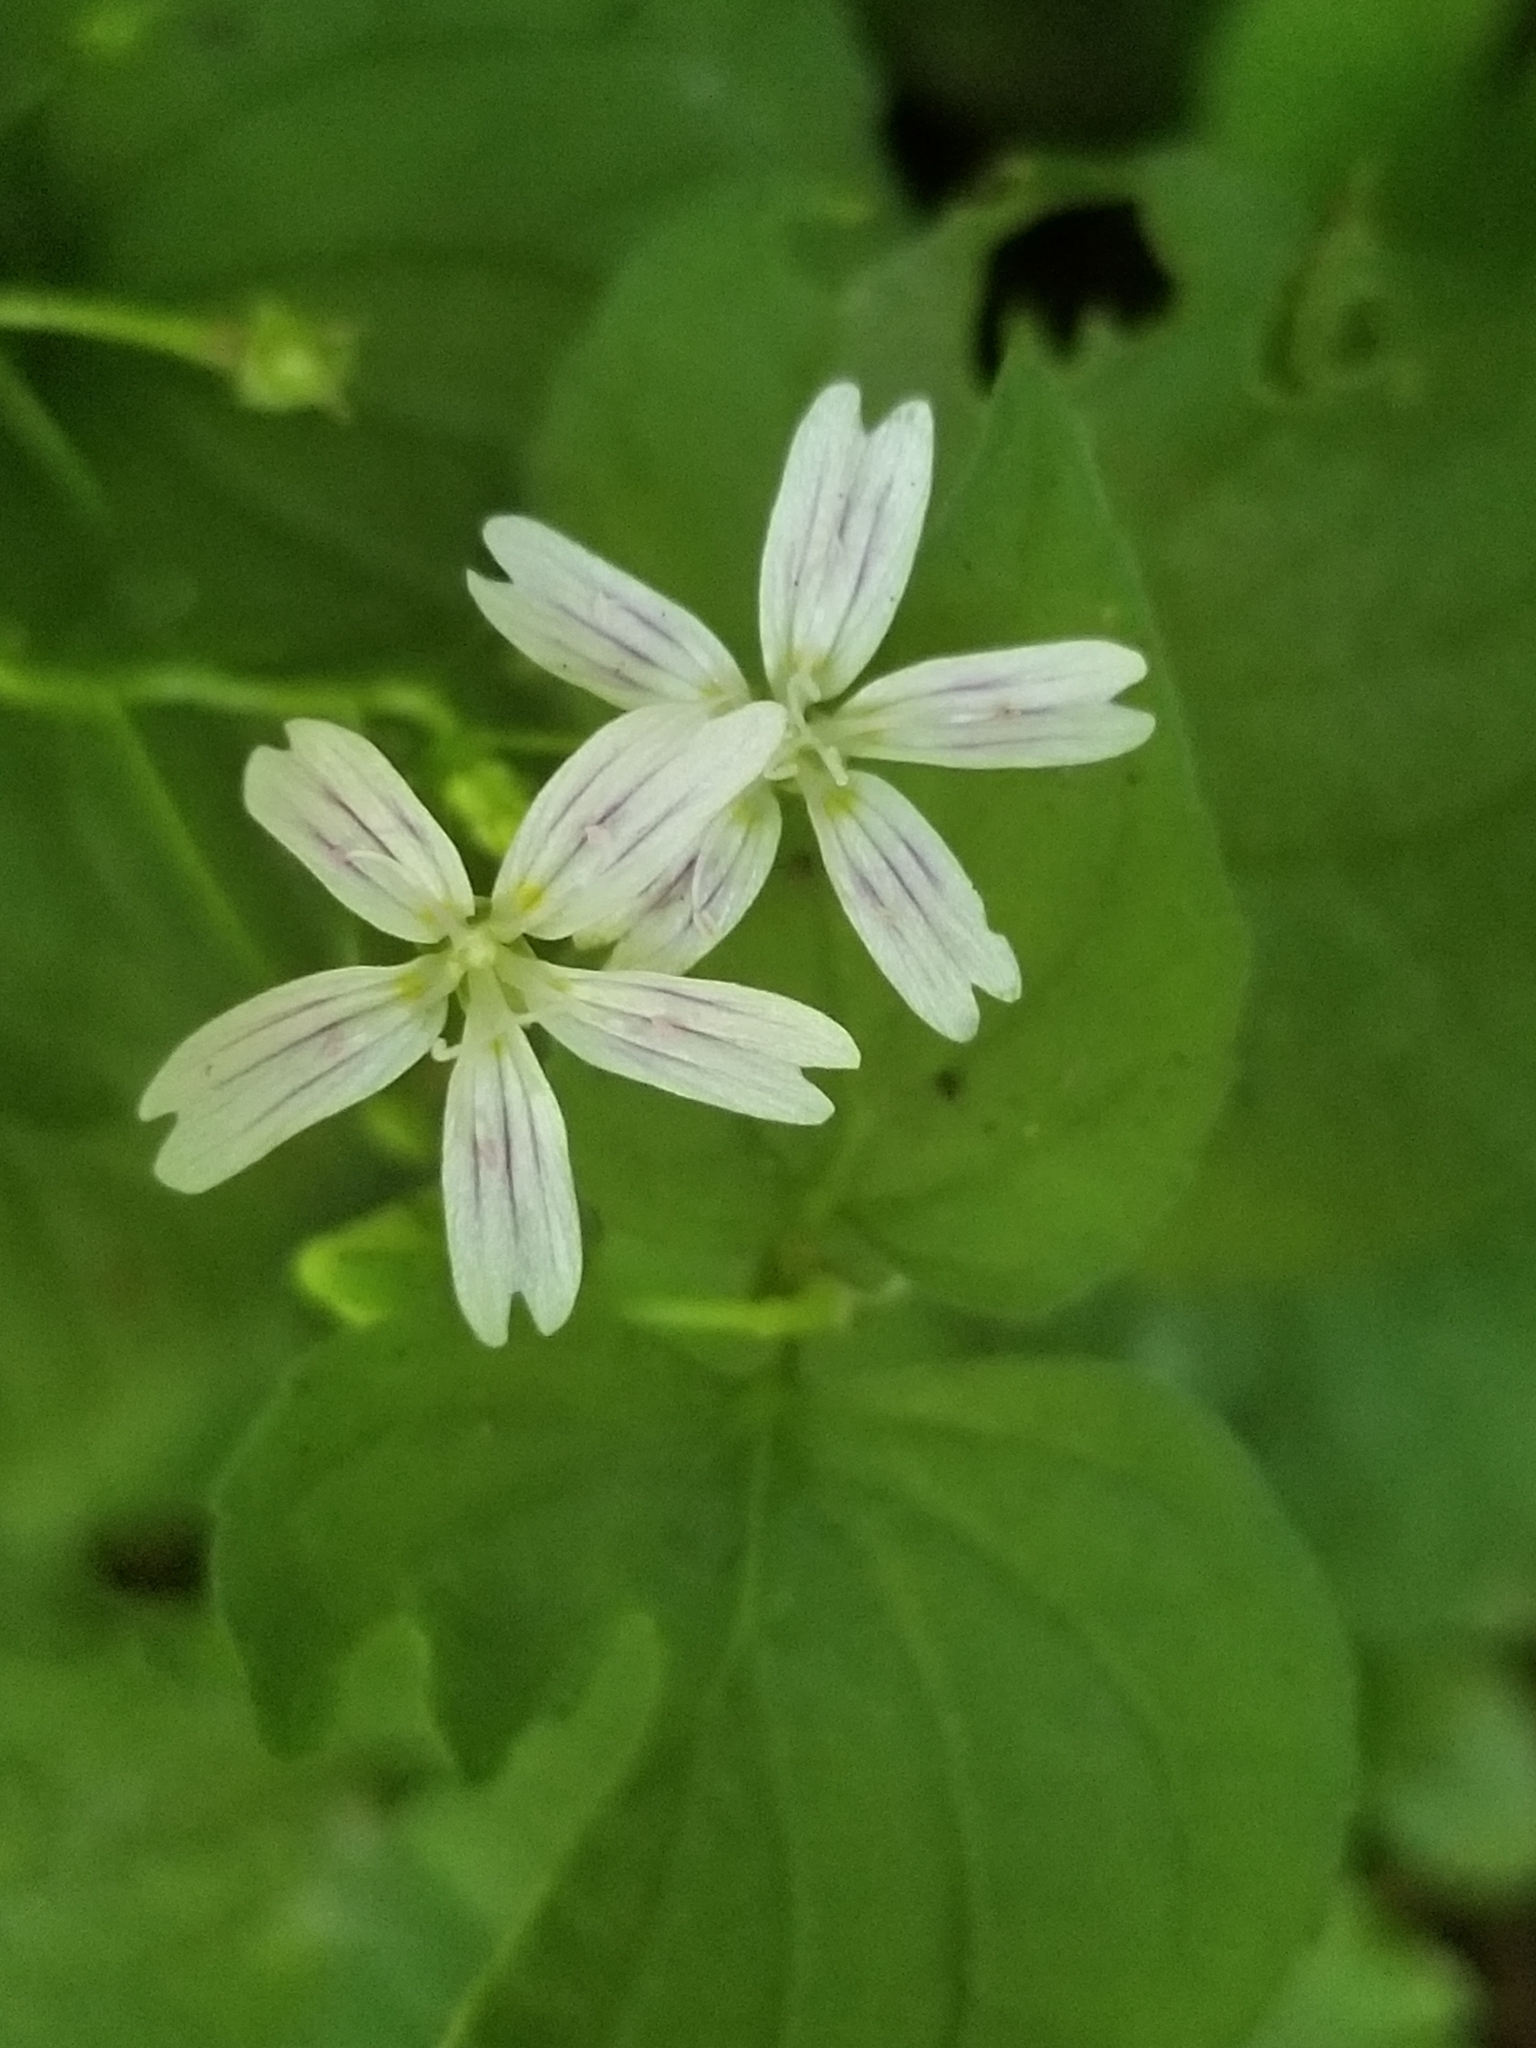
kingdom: Plantae
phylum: Tracheophyta
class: Magnoliopsida
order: Caryophyllales
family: Montiaceae
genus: Claytonia
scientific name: Claytonia sibirica
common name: Pink purslane
